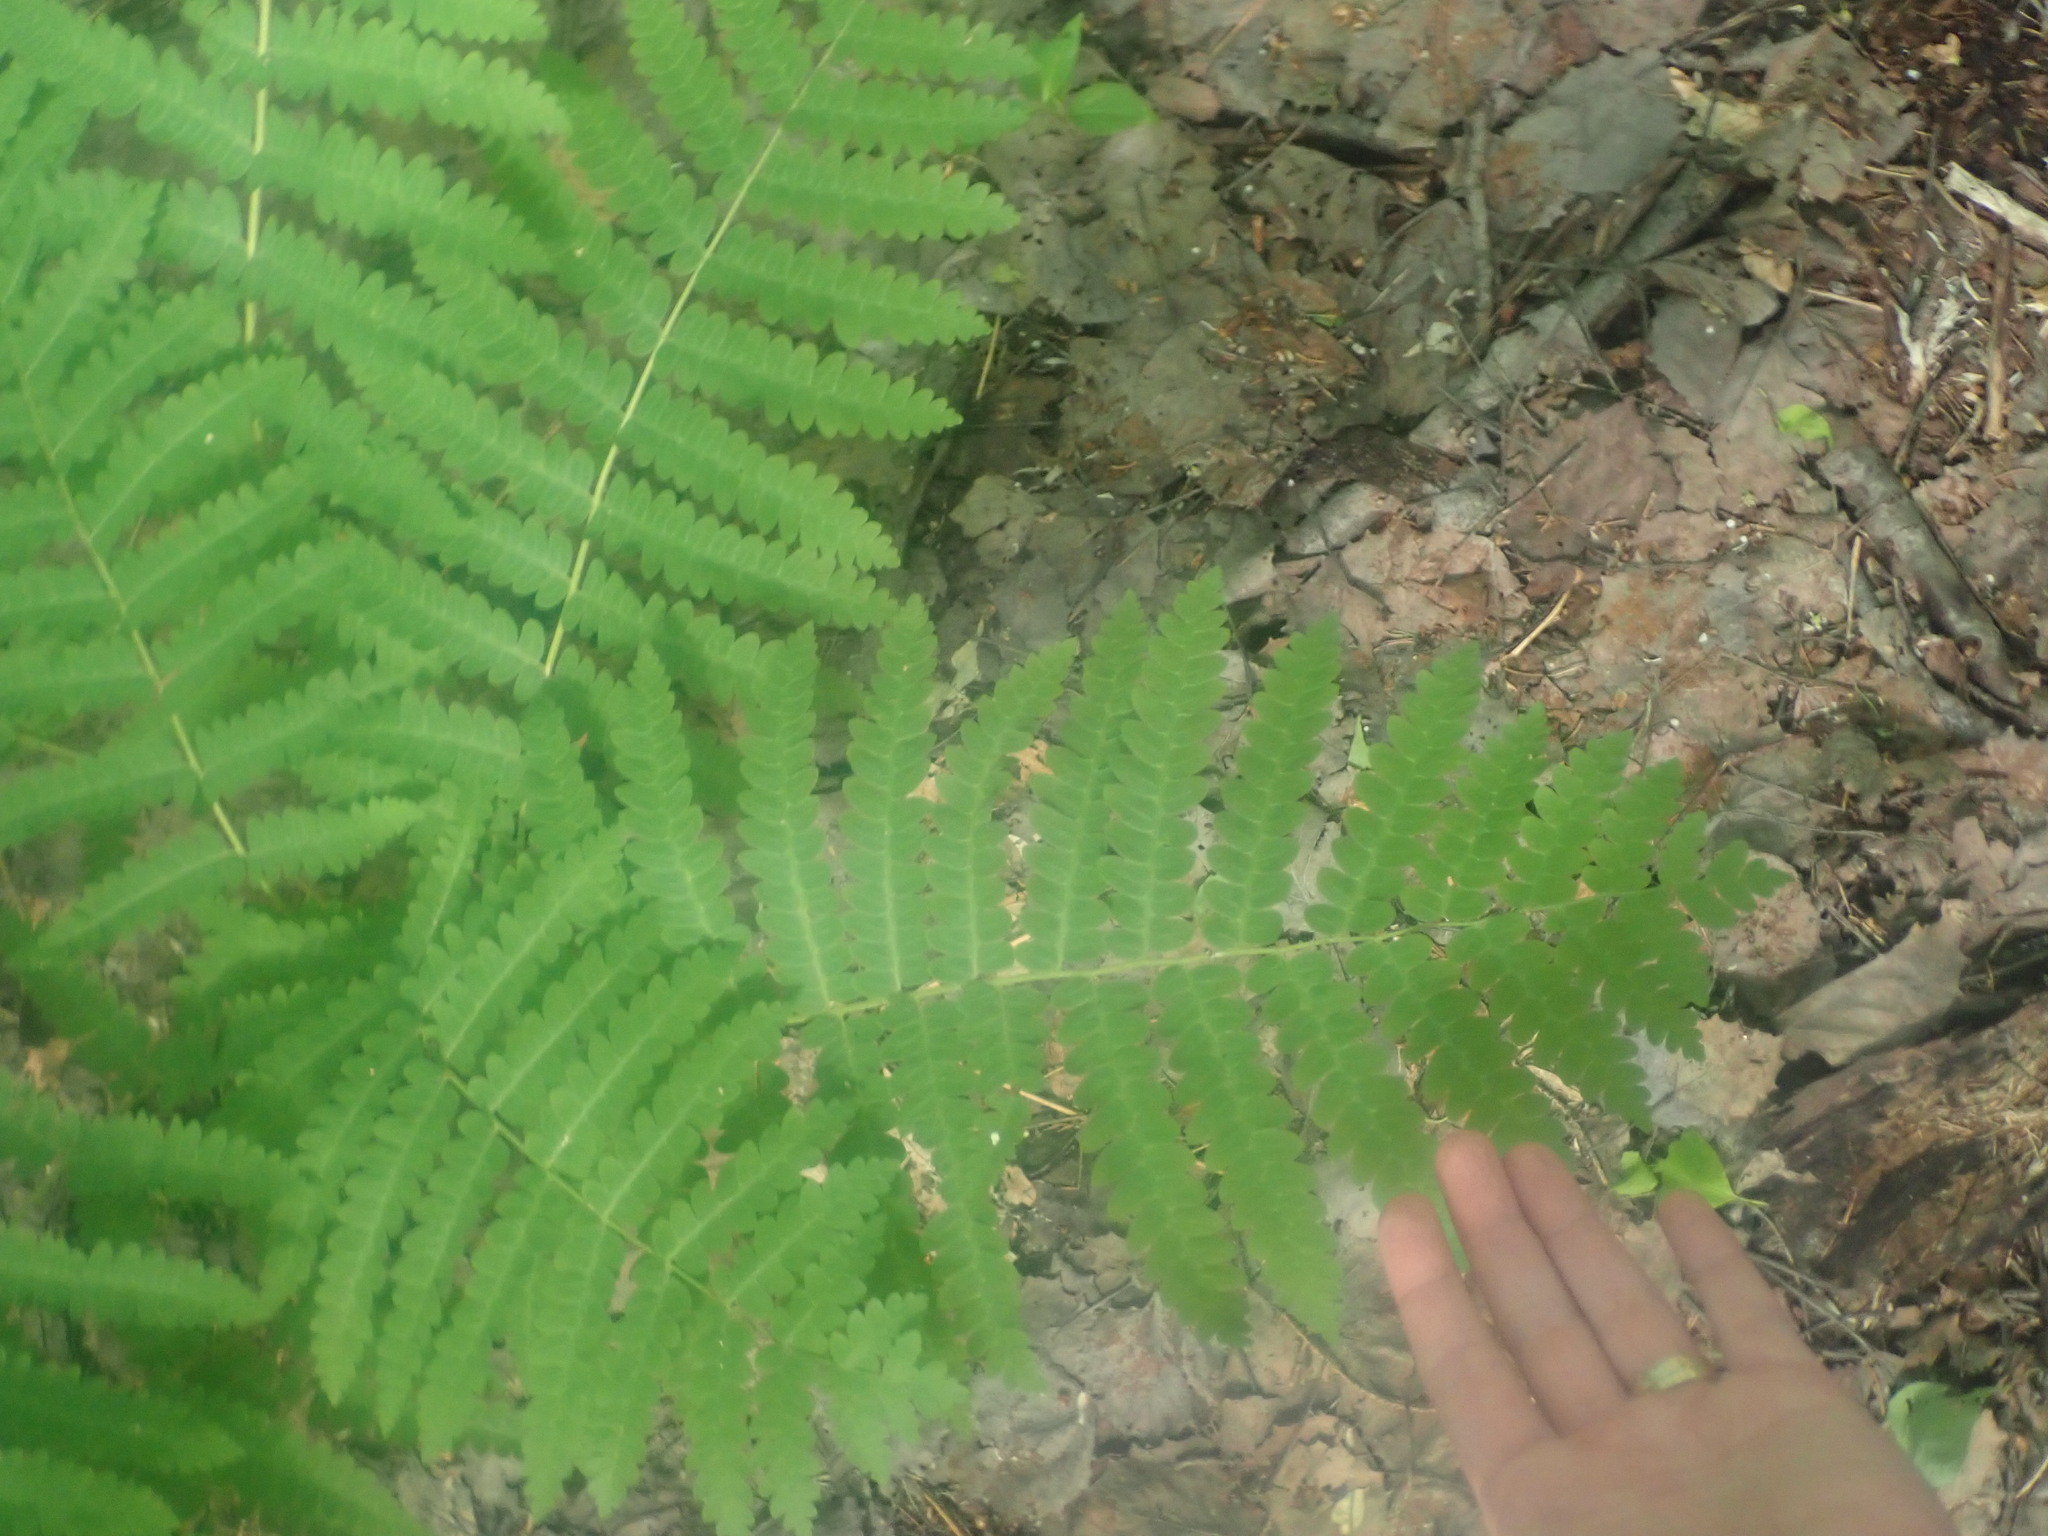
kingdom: Plantae
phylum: Tracheophyta
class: Polypodiopsida
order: Osmundales
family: Osmundaceae
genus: Claytosmunda
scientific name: Claytosmunda claytoniana
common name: Clayton's fern
